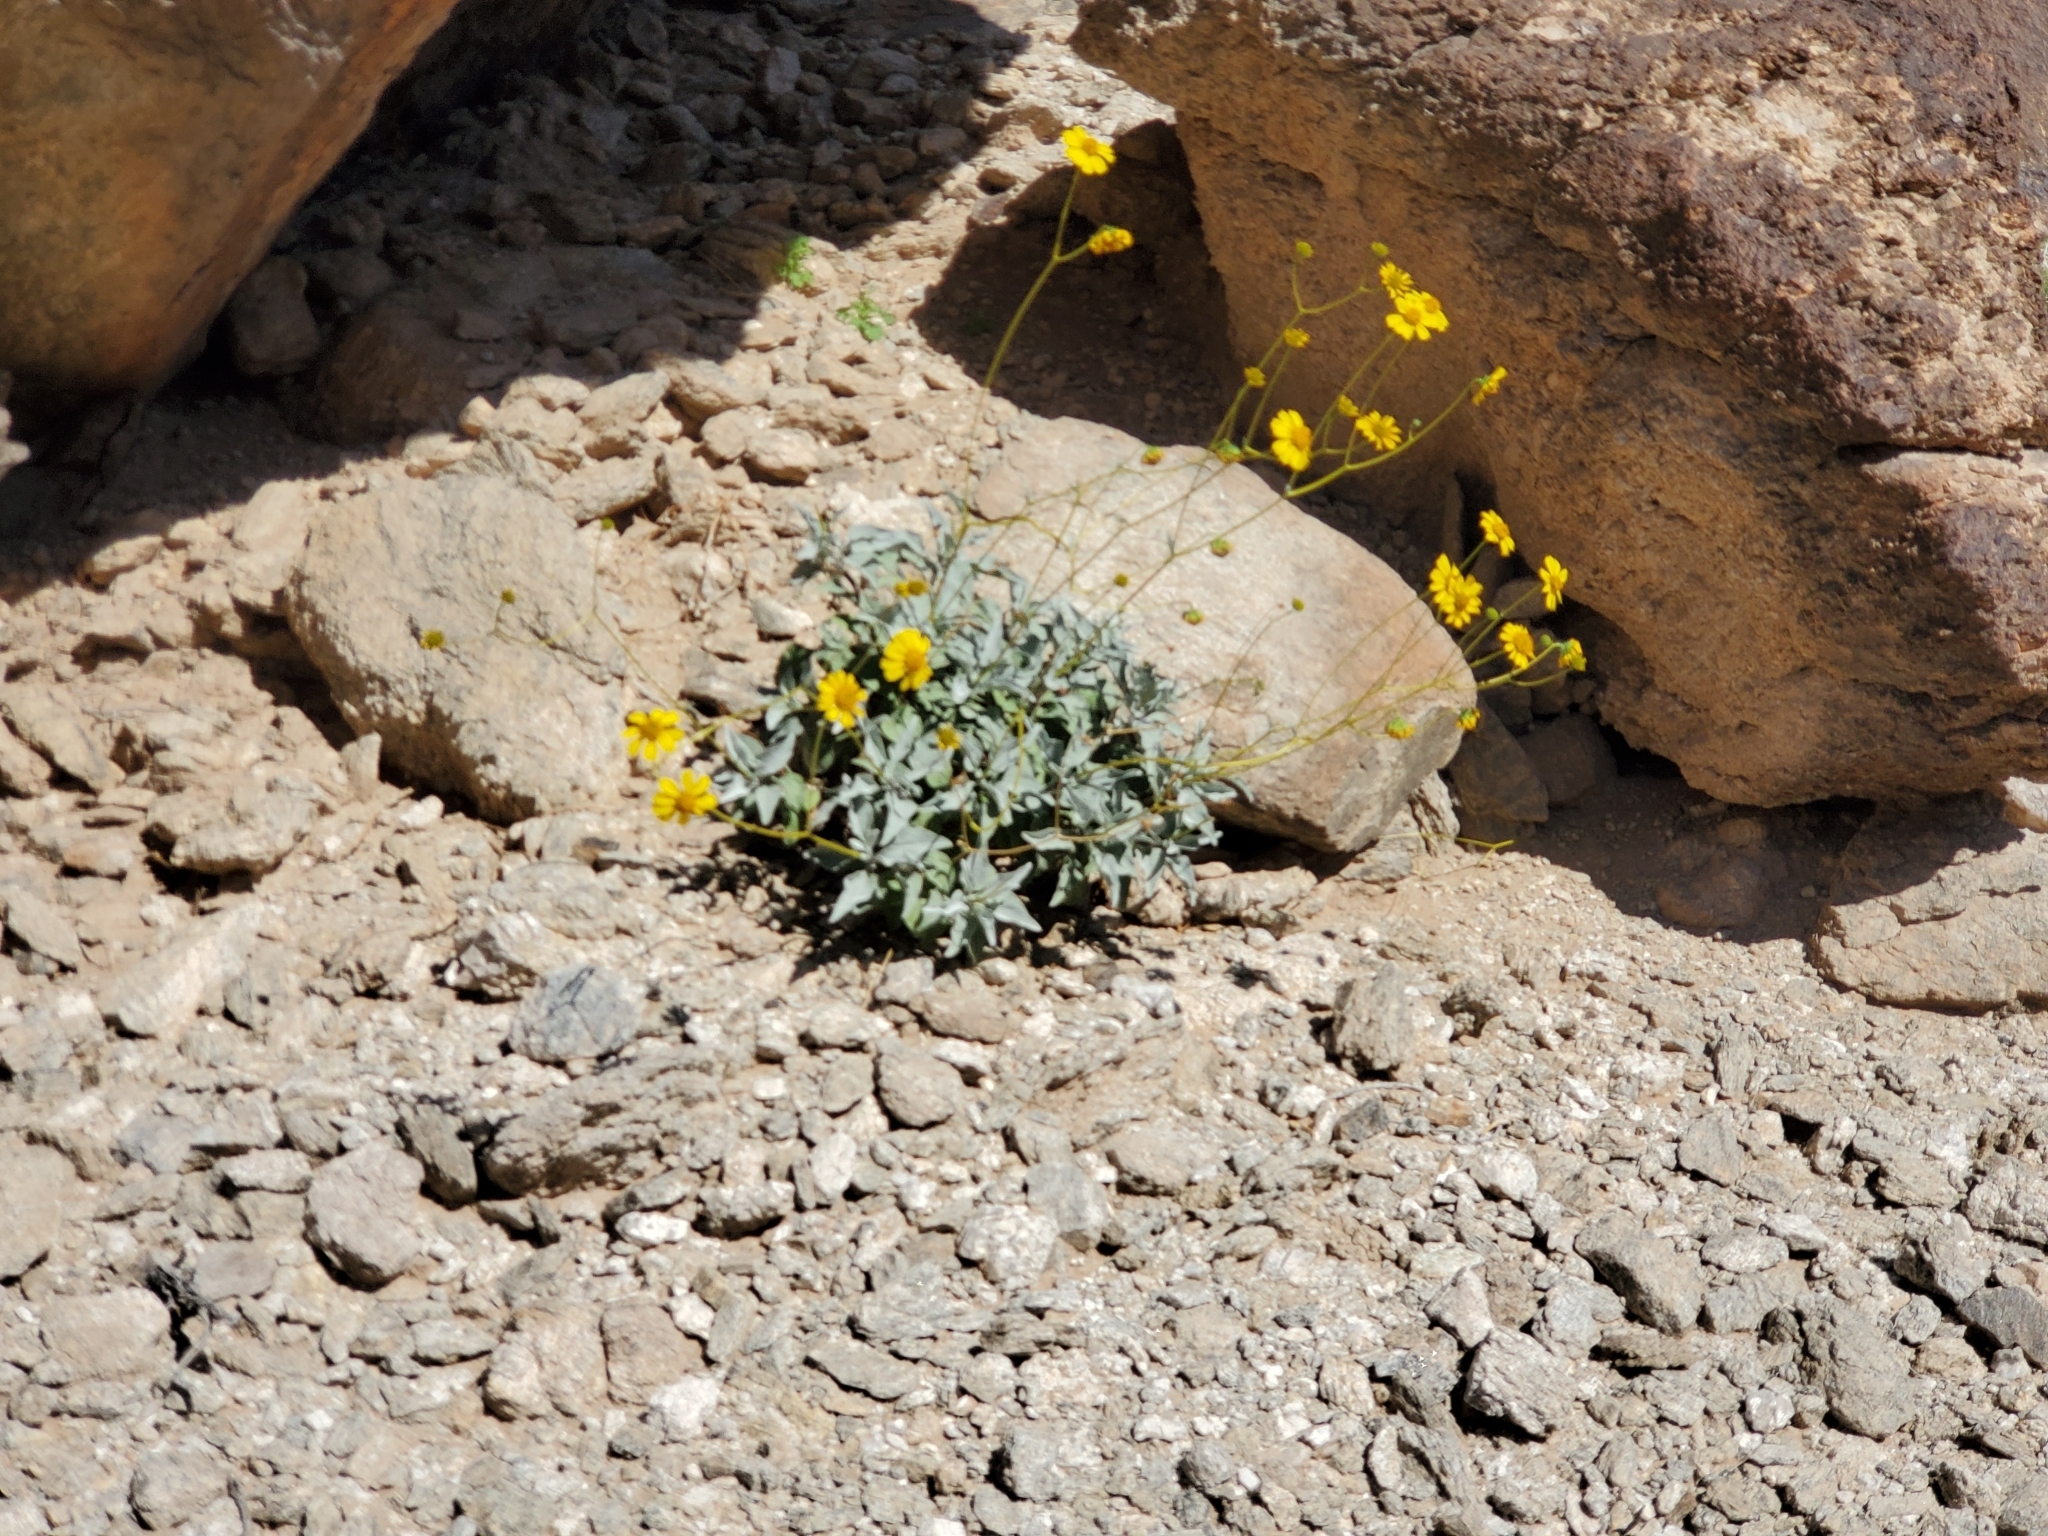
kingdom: Plantae
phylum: Tracheophyta
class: Magnoliopsida
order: Asterales
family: Asteraceae
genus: Encelia
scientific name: Encelia farinosa
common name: Brittlebush
